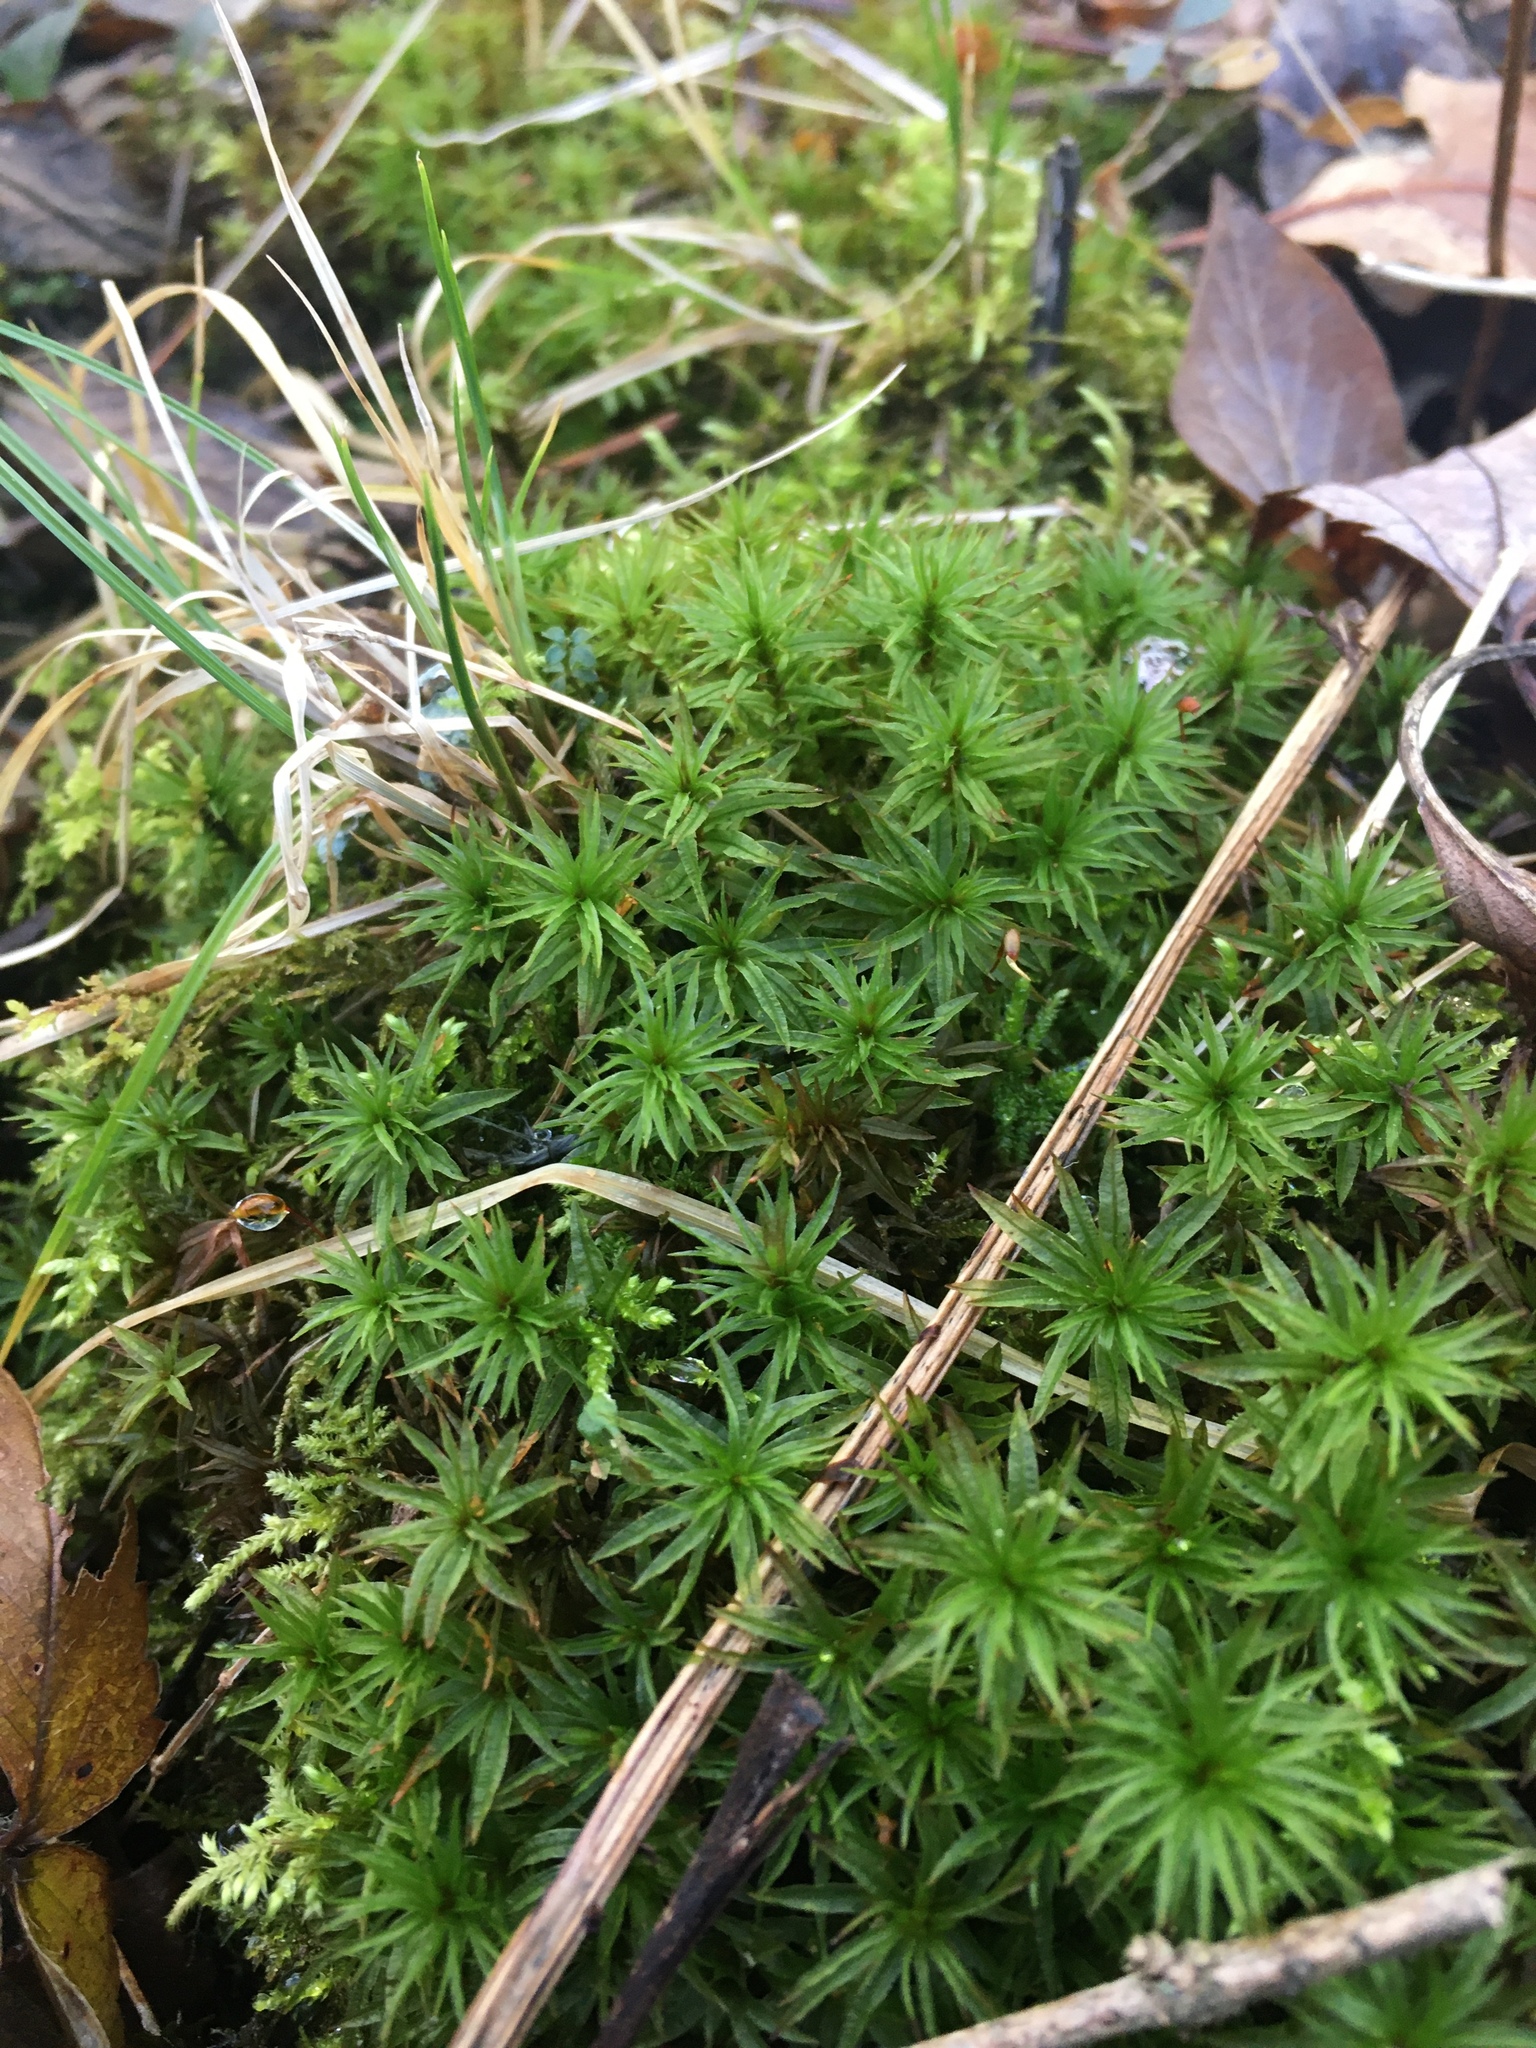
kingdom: Plantae
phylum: Bryophyta
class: Polytrichopsida
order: Polytrichales
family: Polytrichaceae
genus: Atrichum
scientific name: Atrichum undulatum
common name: Common smoothcap
